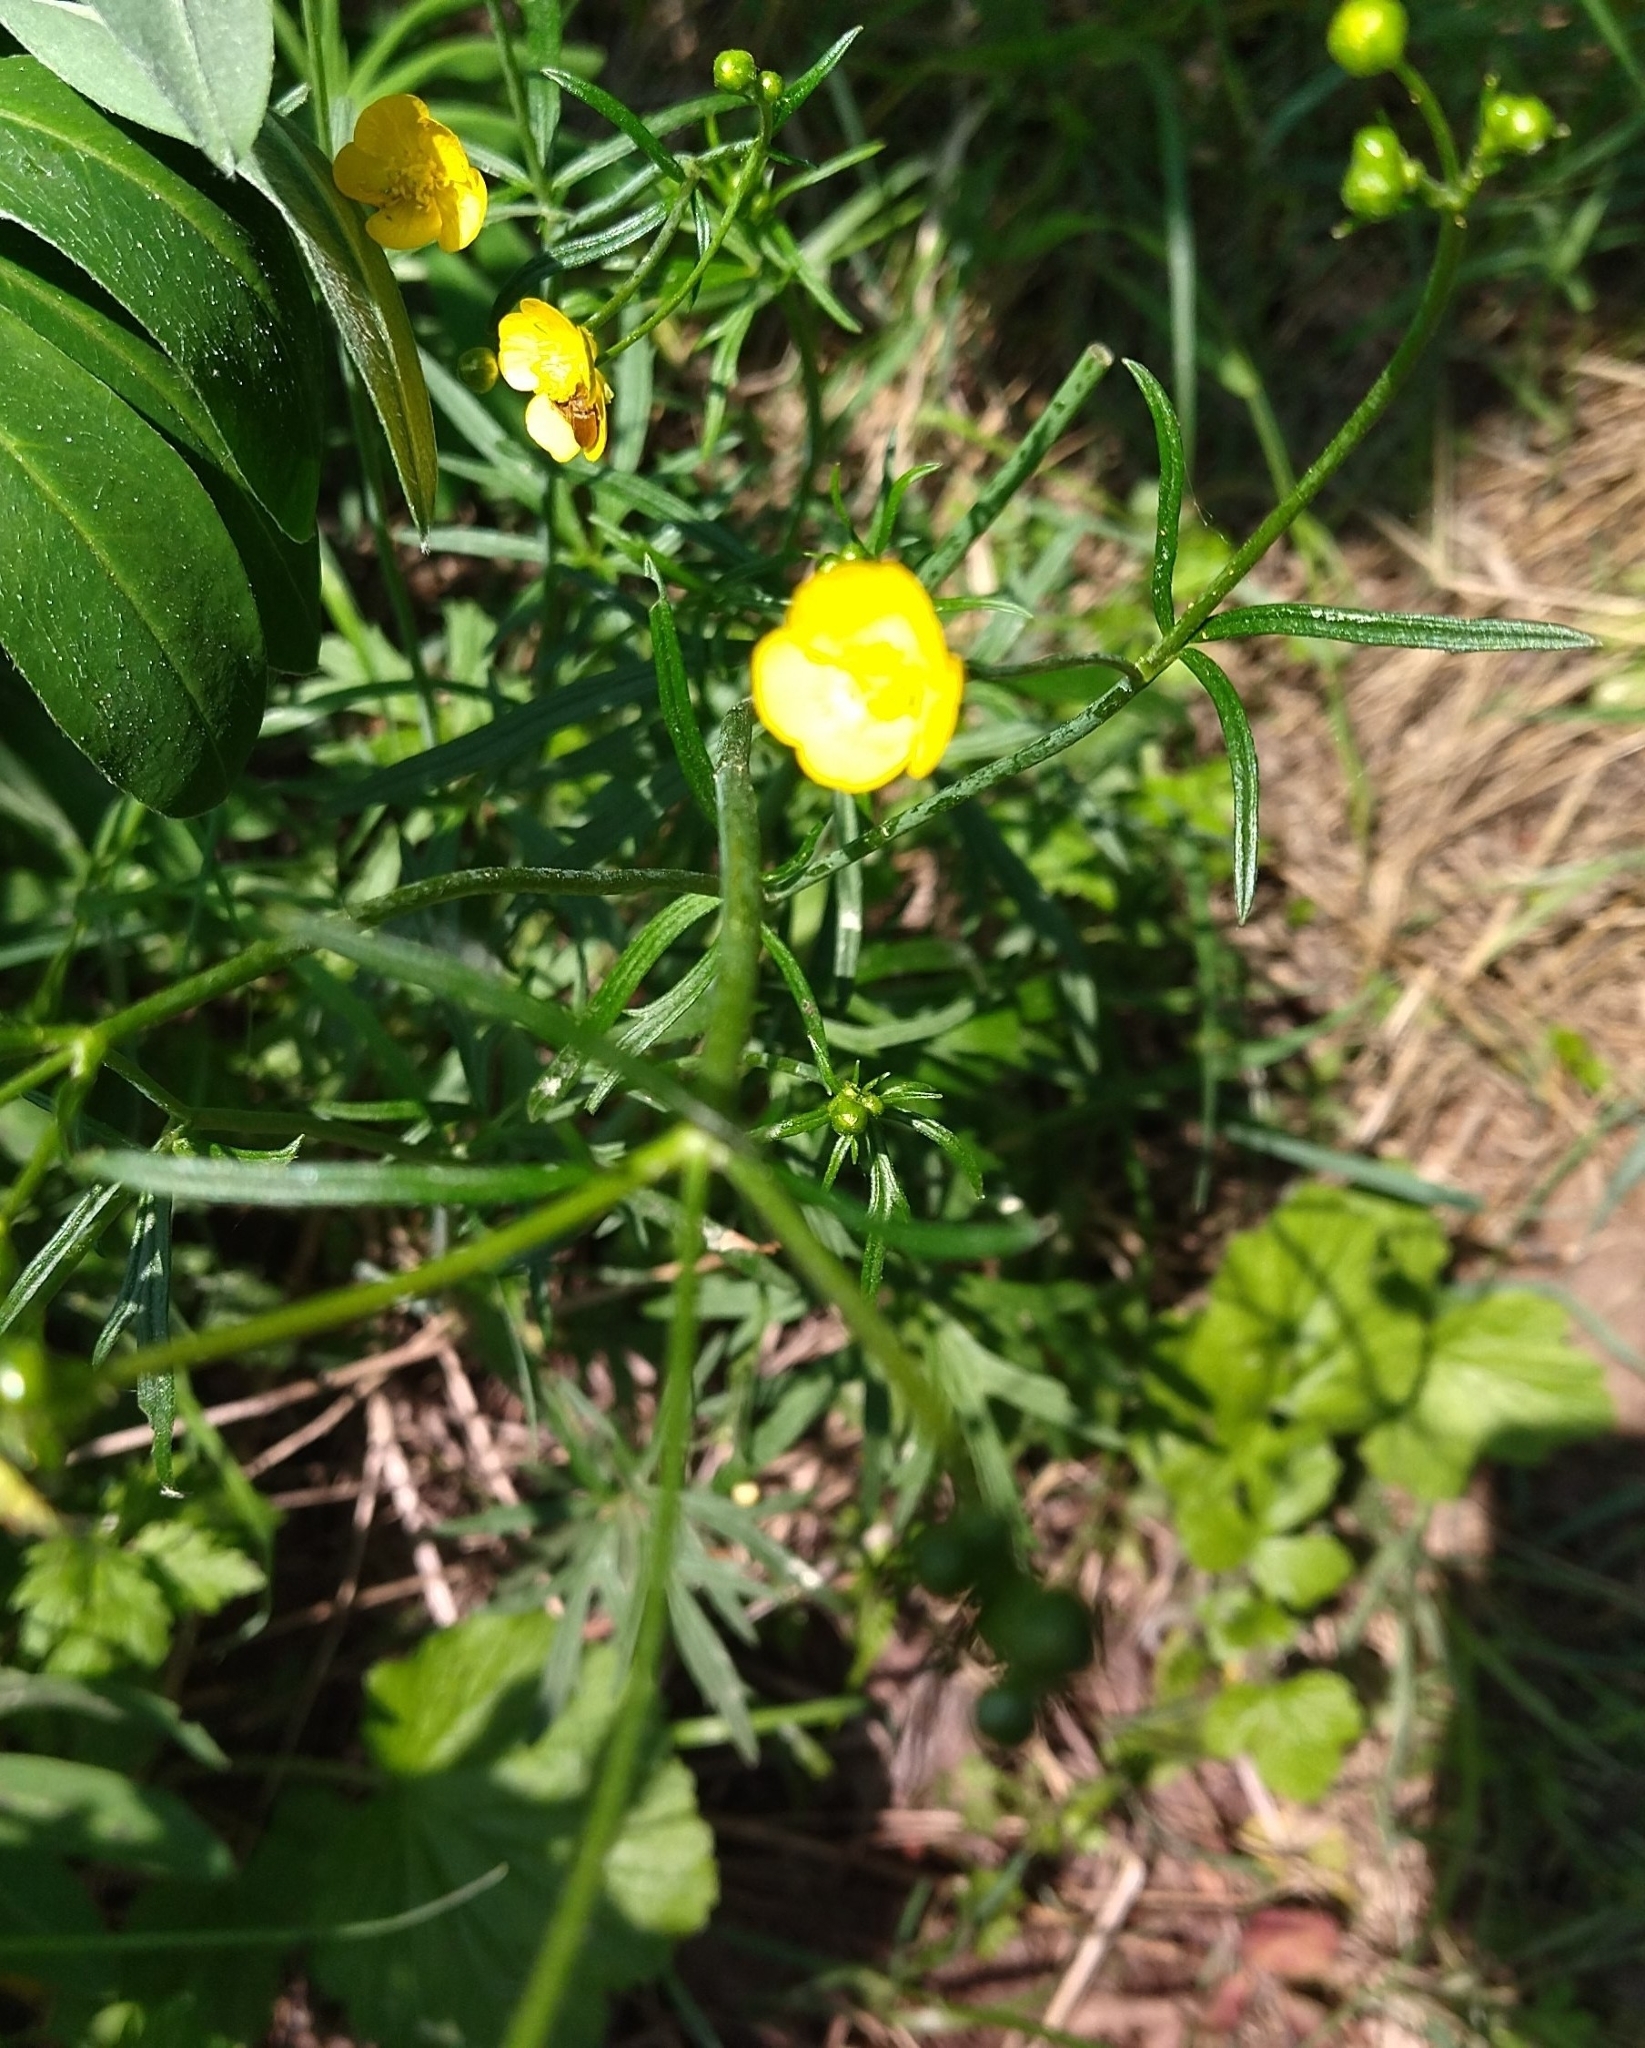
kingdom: Plantae
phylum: Tracheophyta
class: Magnoliopsida
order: Ranunculales
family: Ranunculaceae
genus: Ranunculus
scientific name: Ranunculus acris
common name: Meadow buttercup
